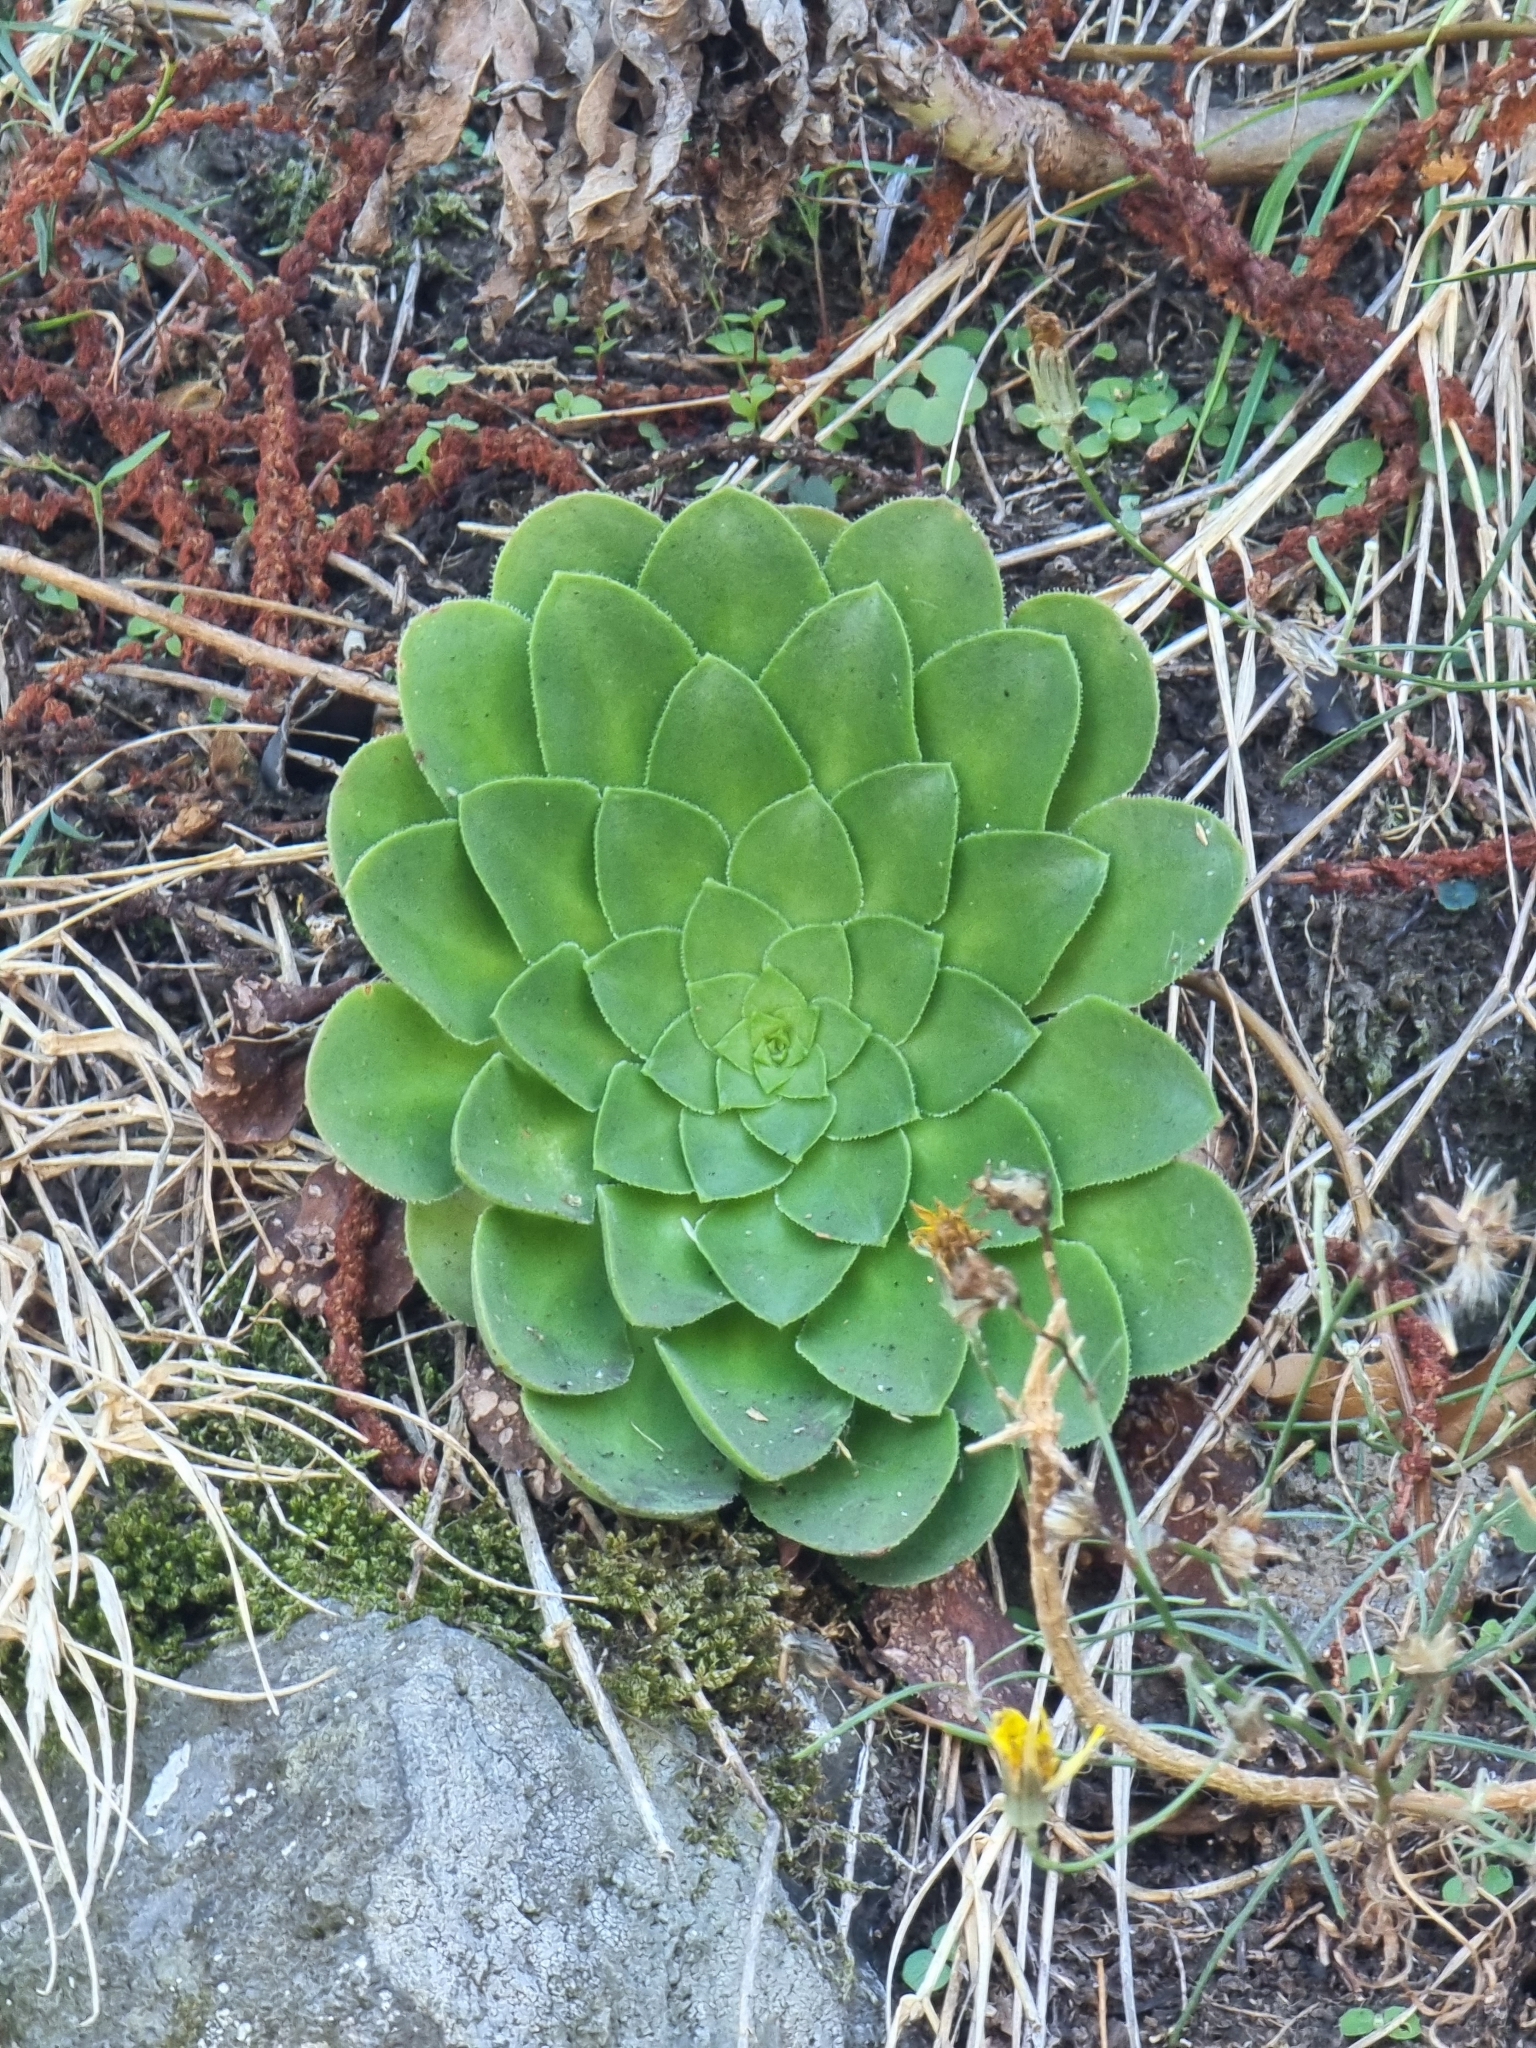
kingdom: Plantae
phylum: Tracheophyta
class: Magnoliopsida
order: Saxifragales
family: Crassulaceae
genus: Aeonium
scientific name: Aeonium glandulosum
